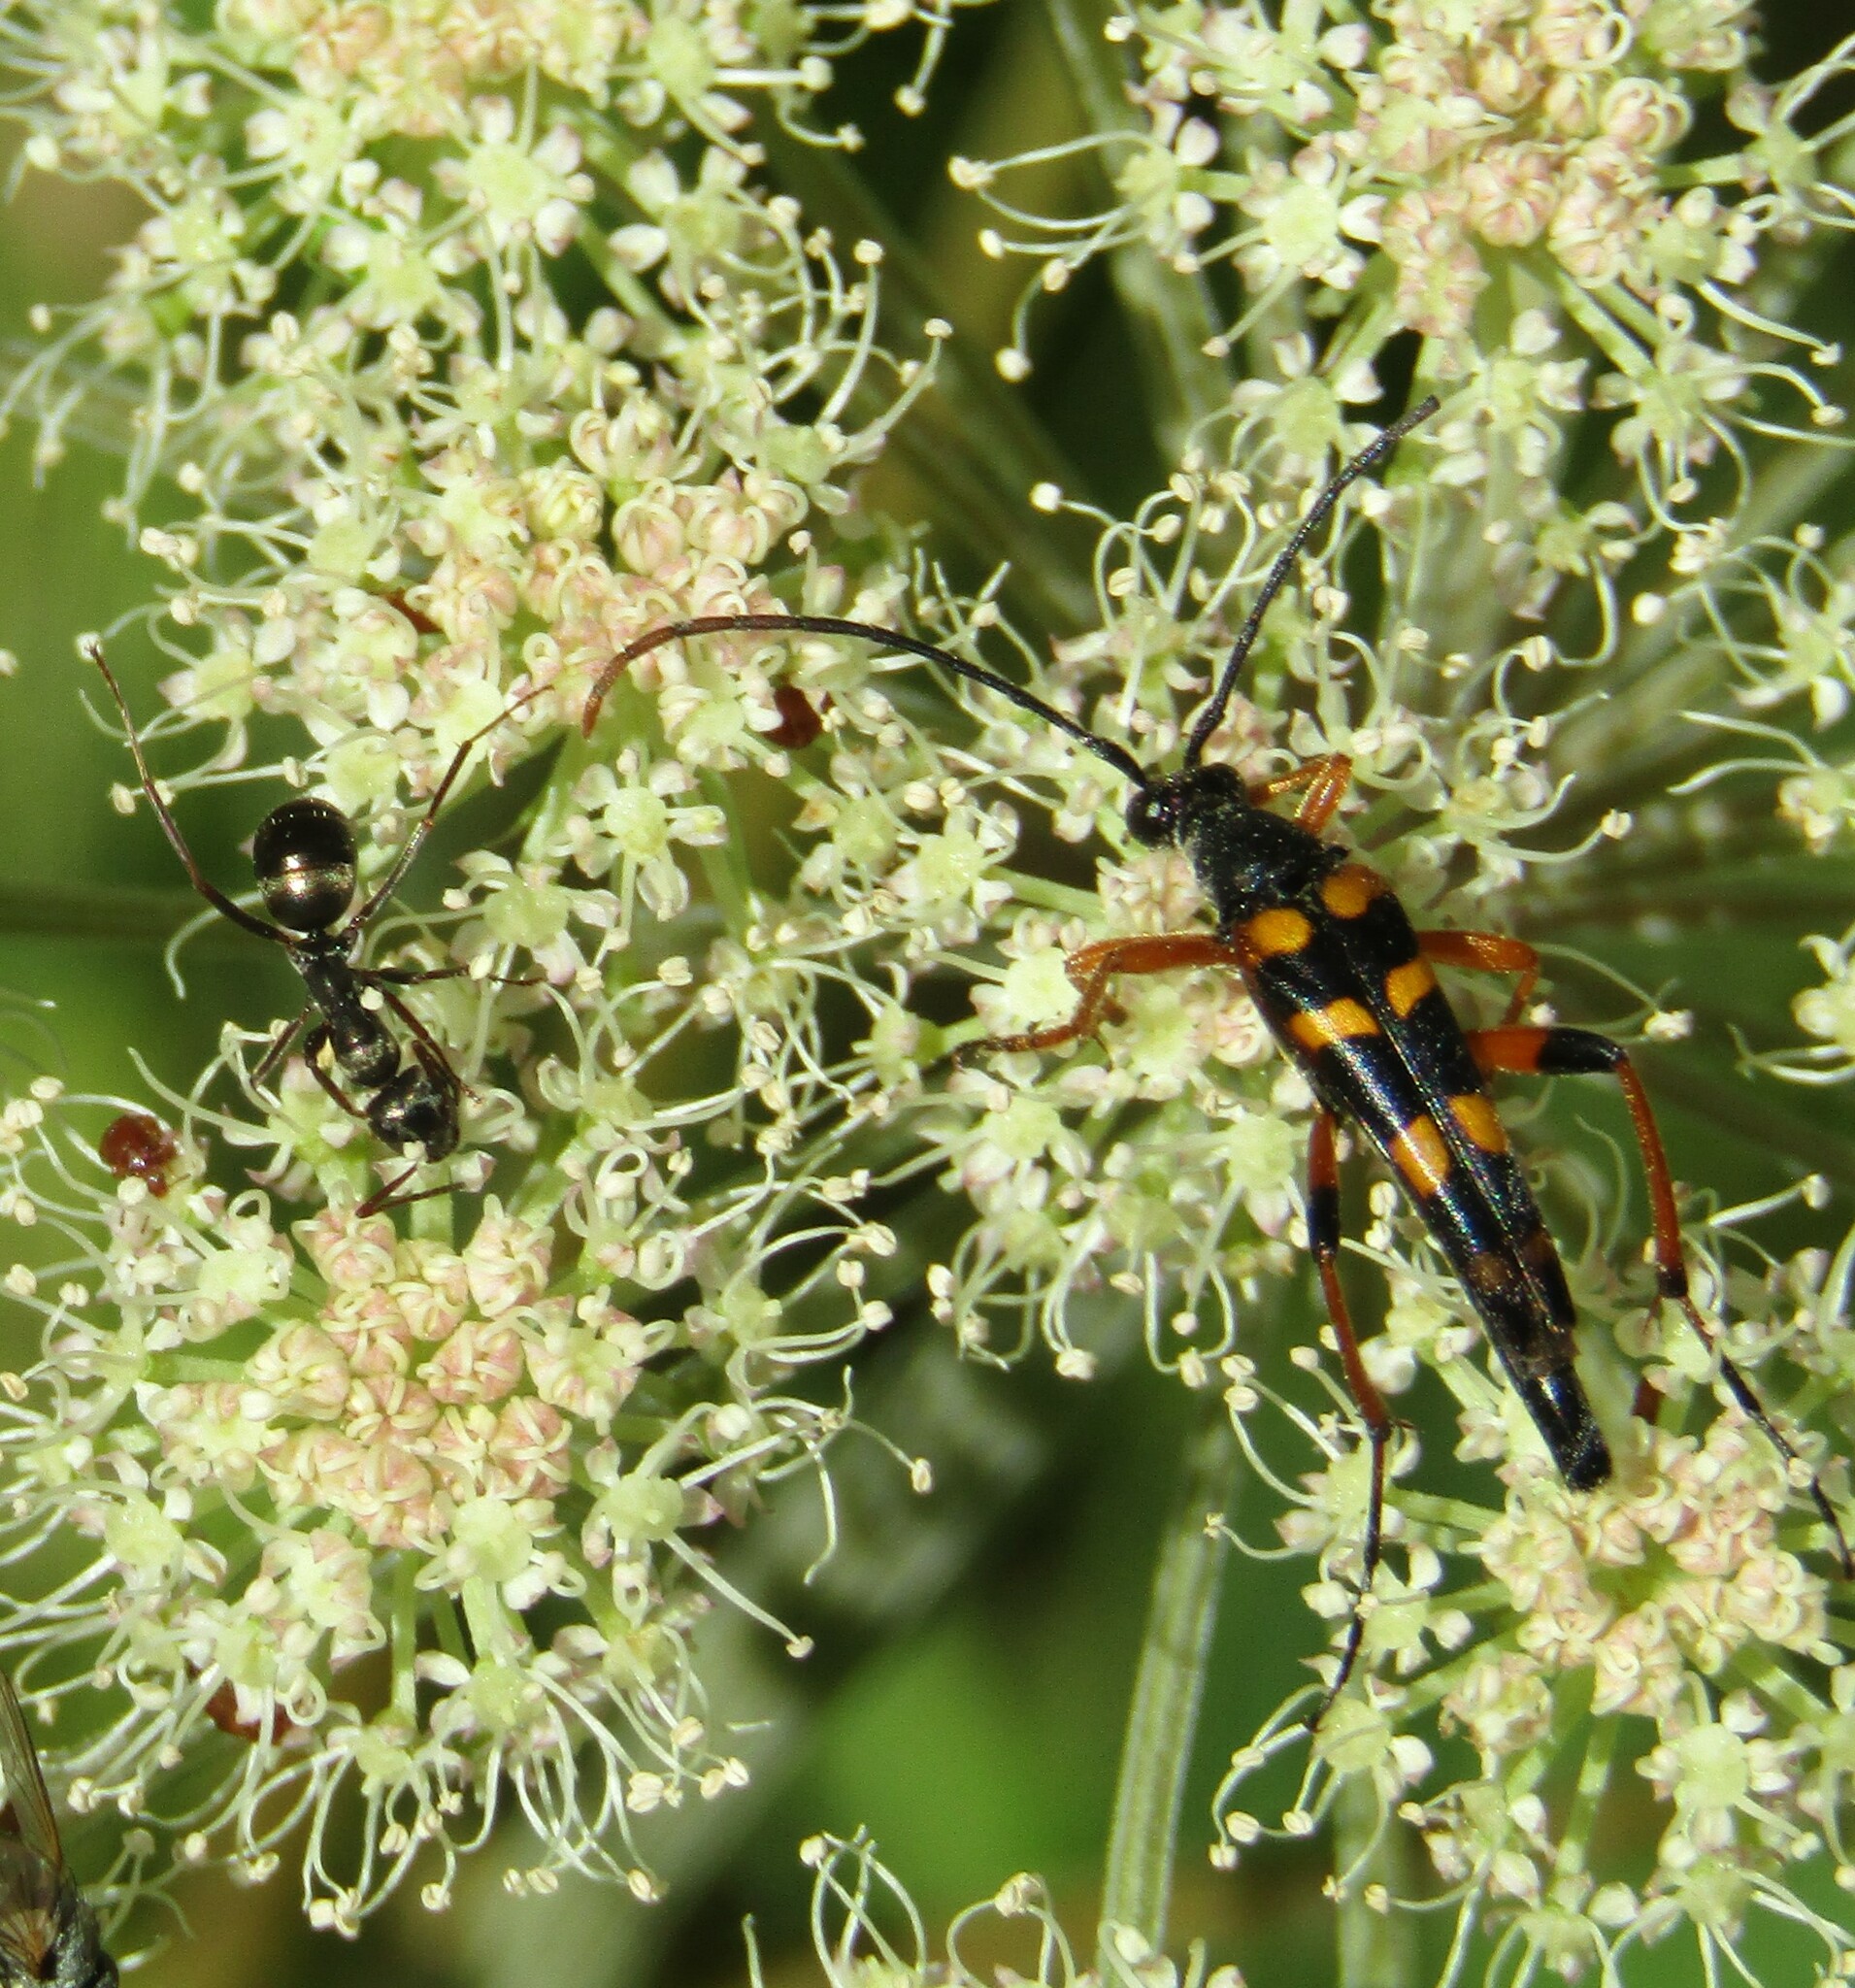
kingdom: Animalia
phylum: Arthropoda
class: Insecta
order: Coleoptera
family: Cerambycidae
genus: Strangalia
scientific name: Strangalia attenuata
